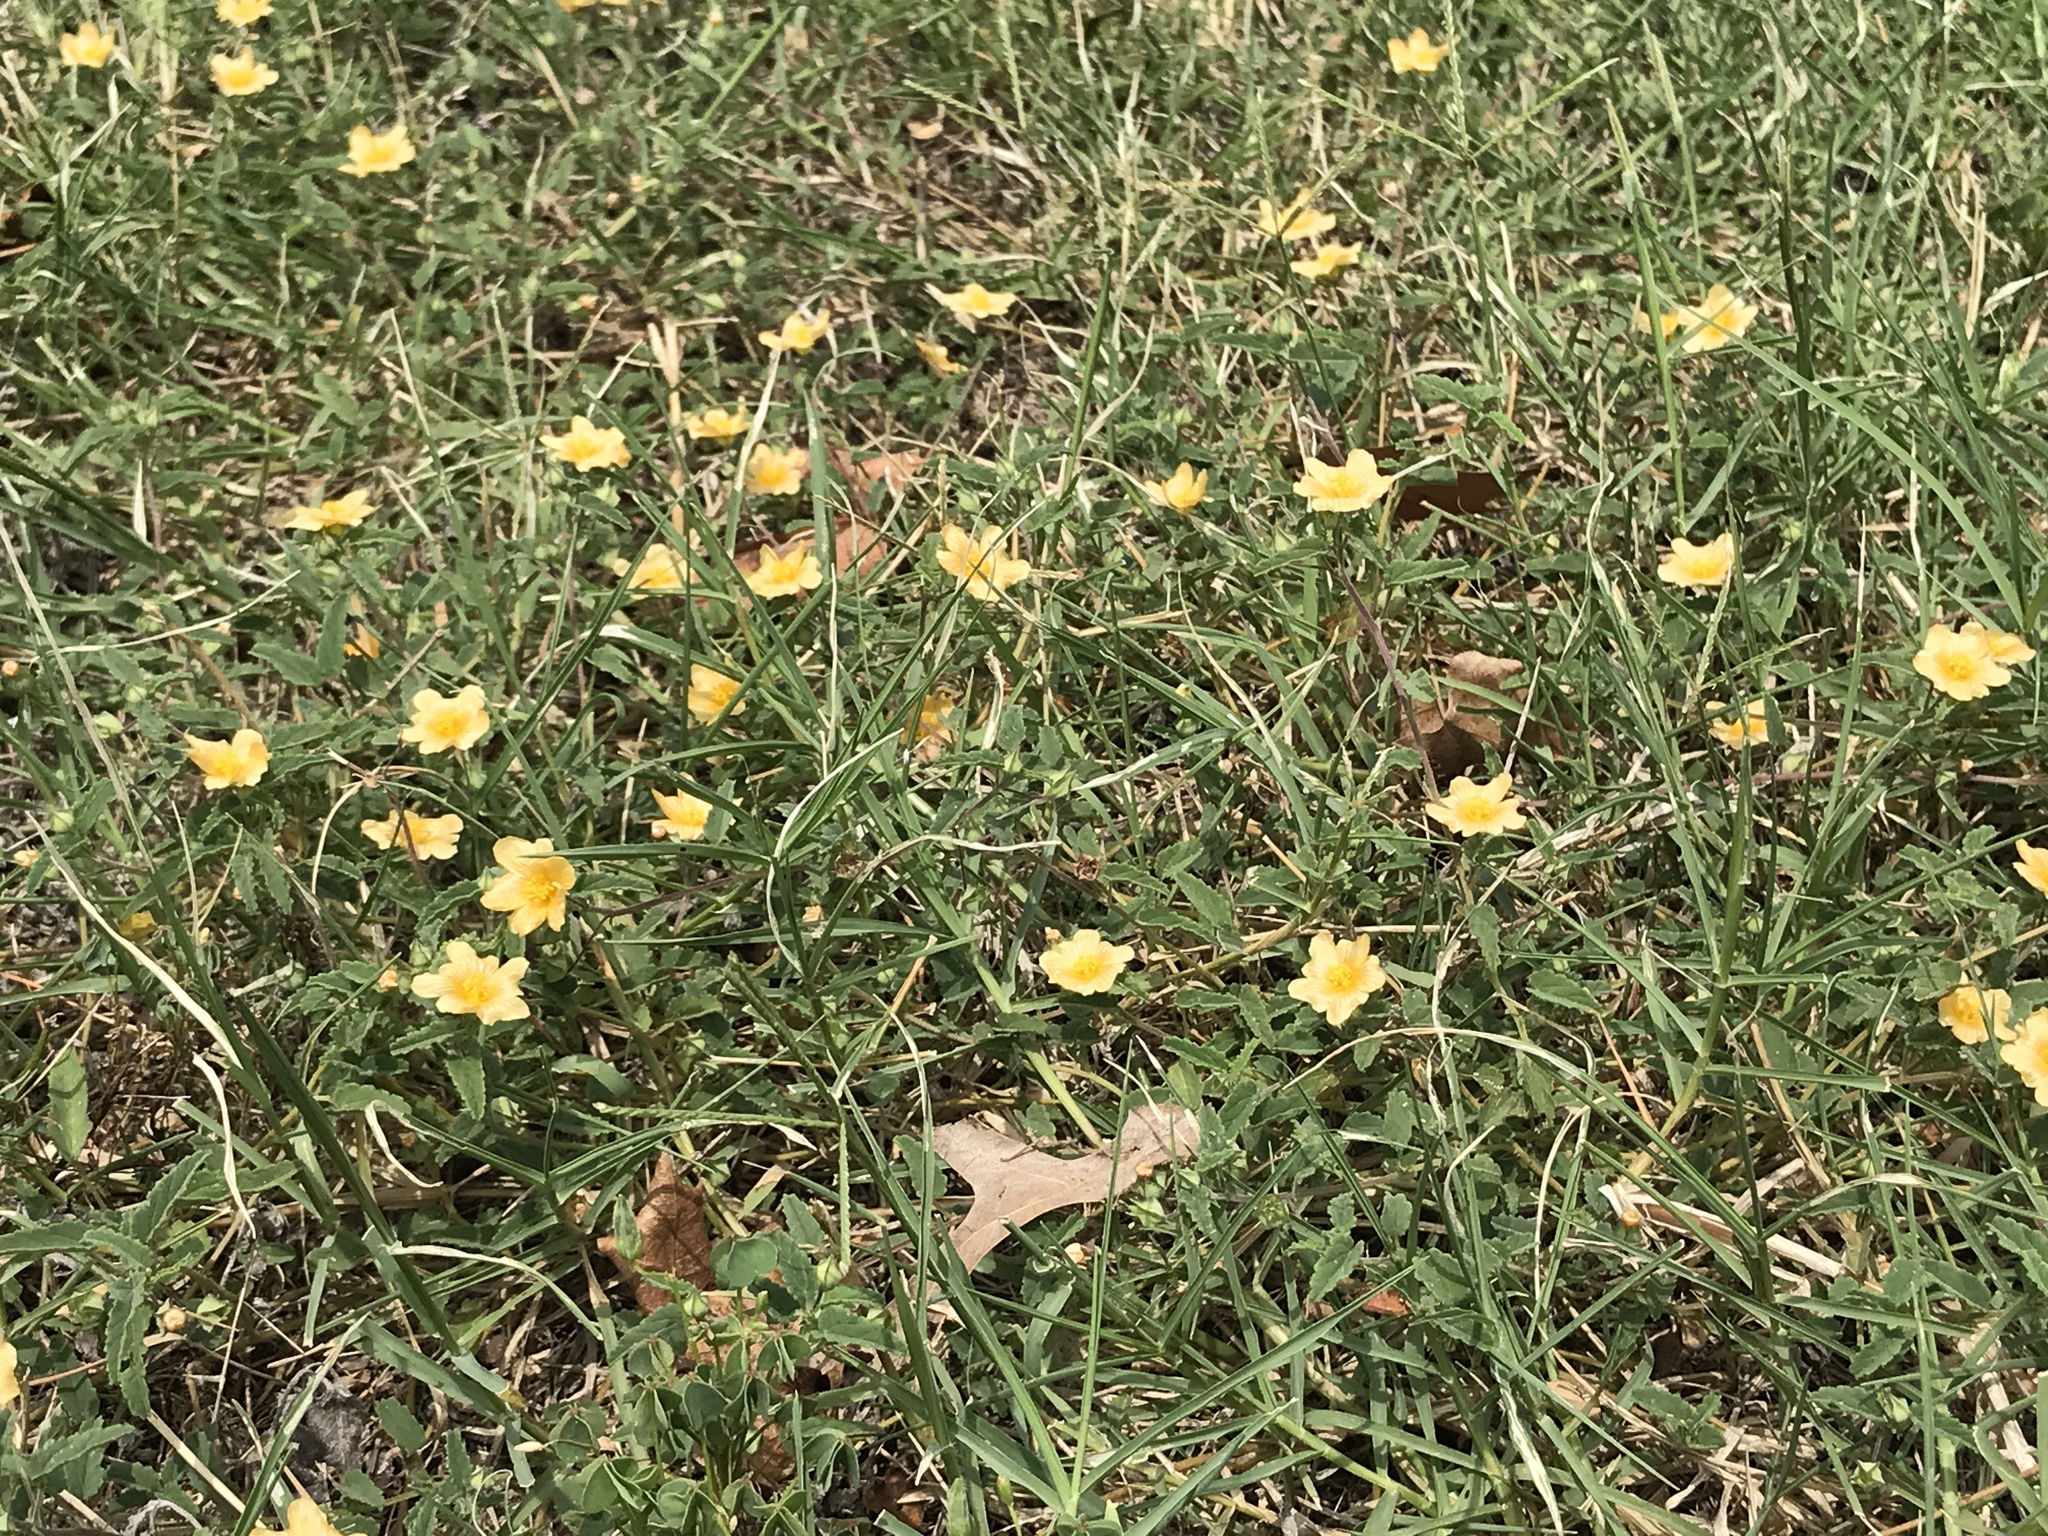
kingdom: Plantae
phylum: Tracheophyta
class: Magnoliopsida
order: Malvales
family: Malvaceae
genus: Sida
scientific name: Sida abutilifolia
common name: Spreading fanpetals
